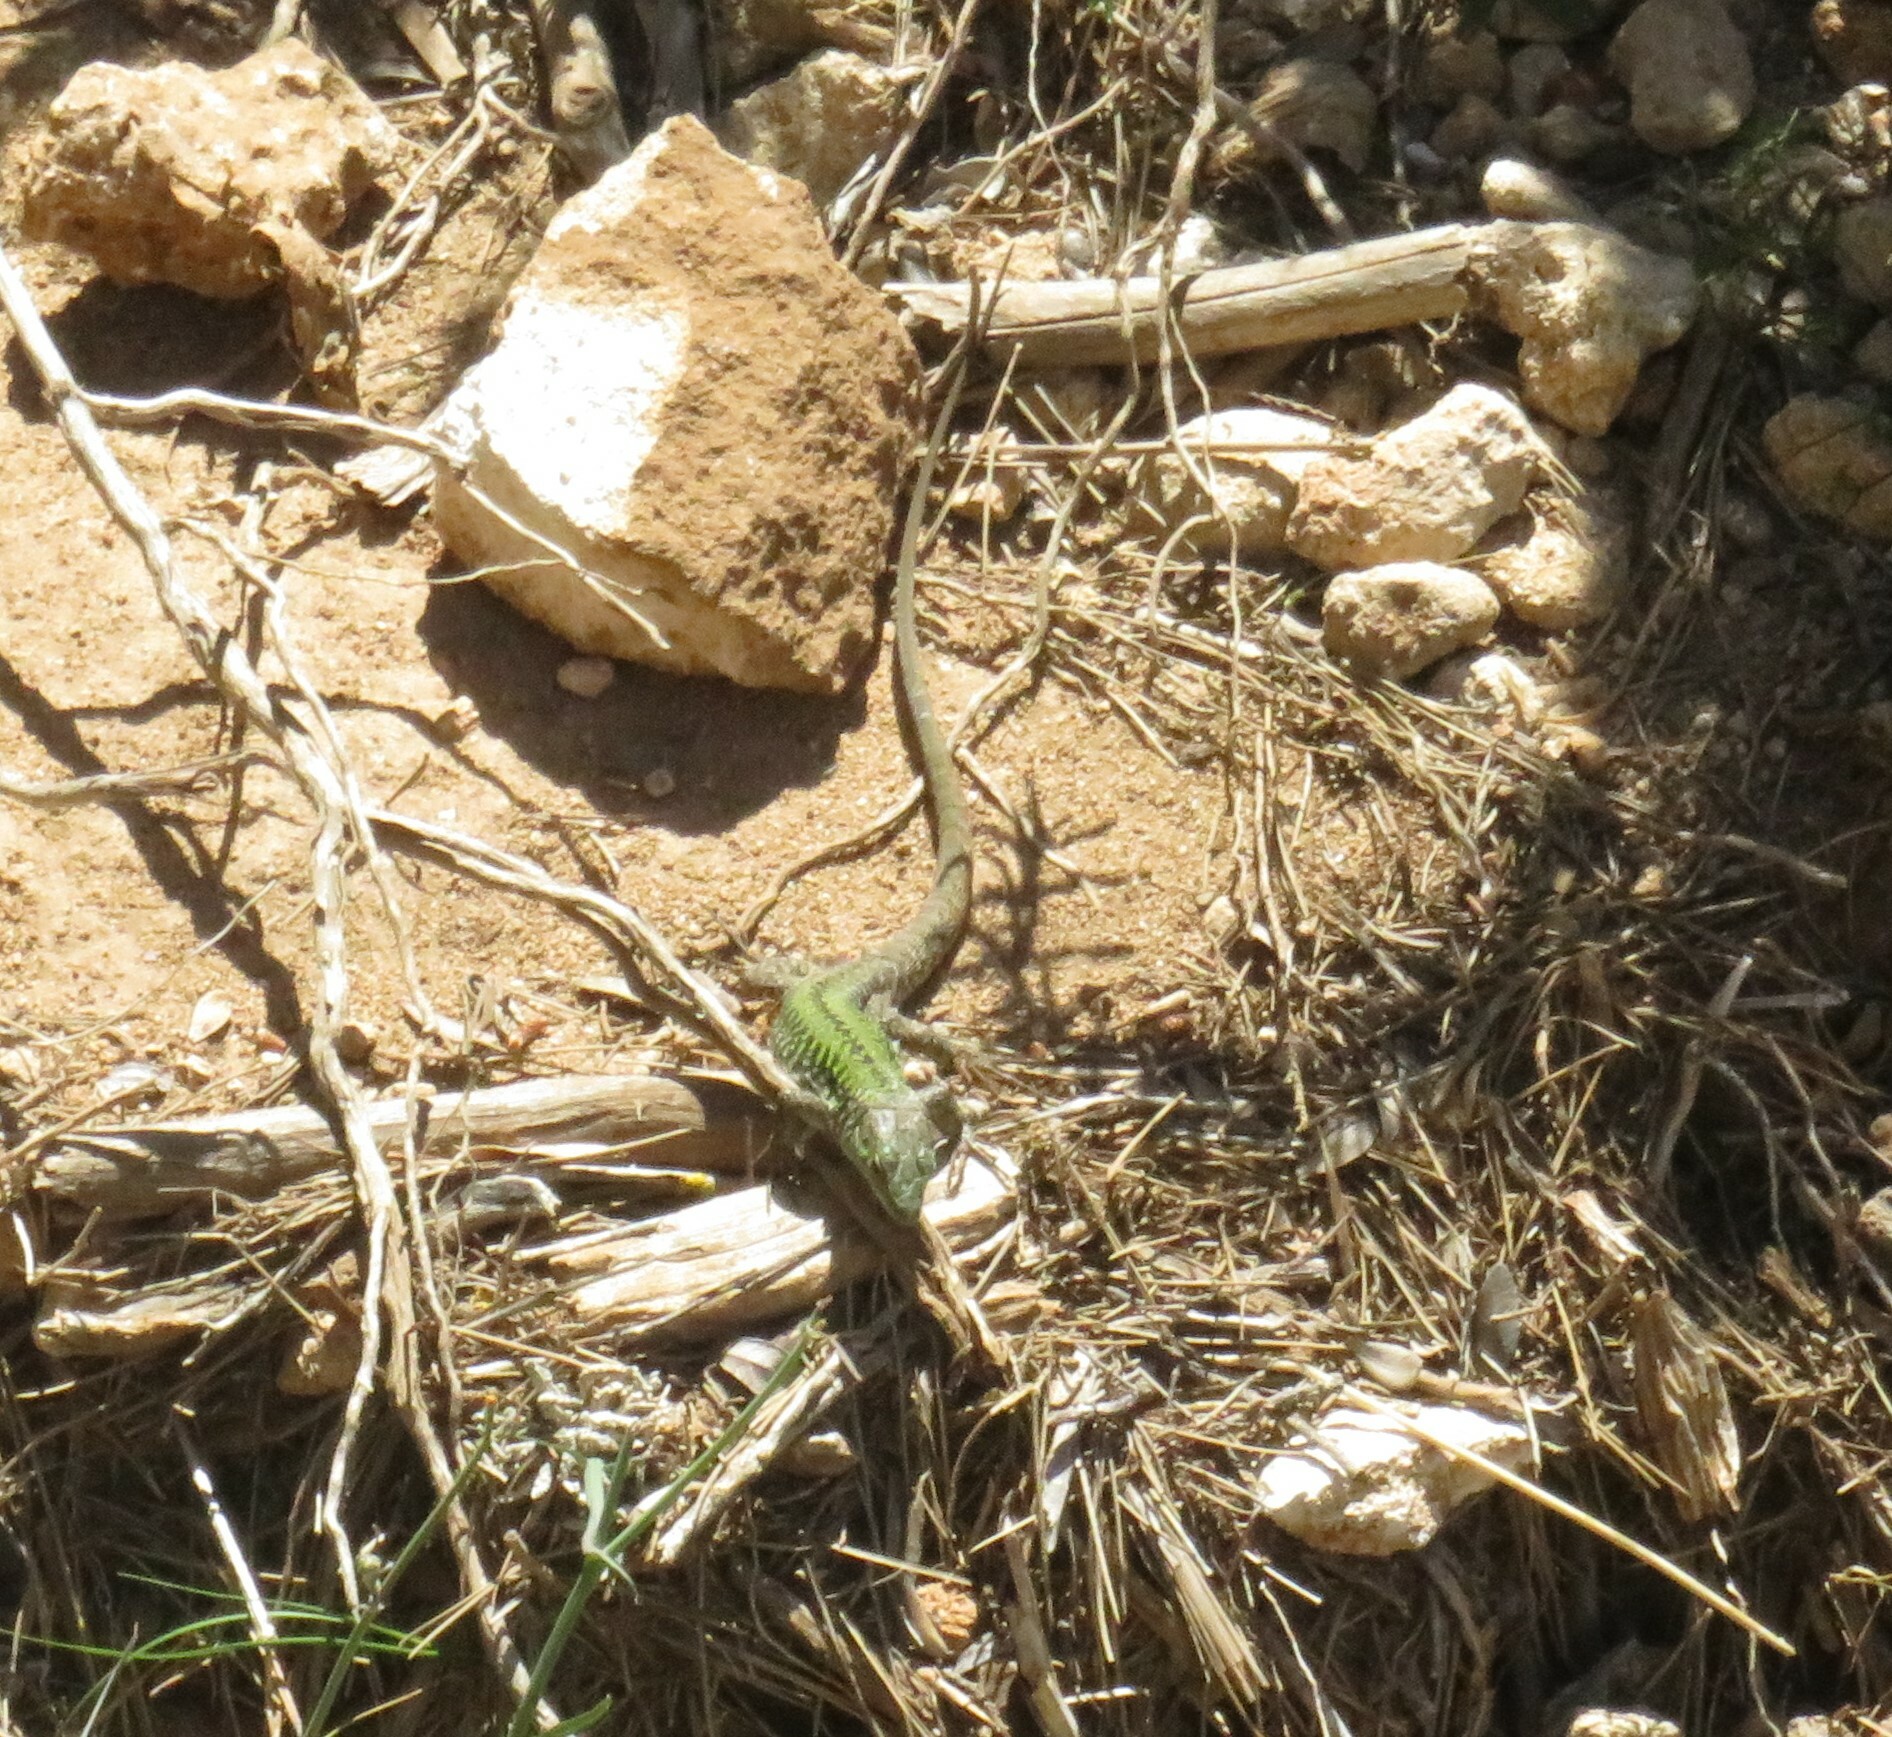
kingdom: Animalia
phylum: Chordata
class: Squamata
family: Lacertidae
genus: Podarcis
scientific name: Podarcis siculus
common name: Italian wall lizard
